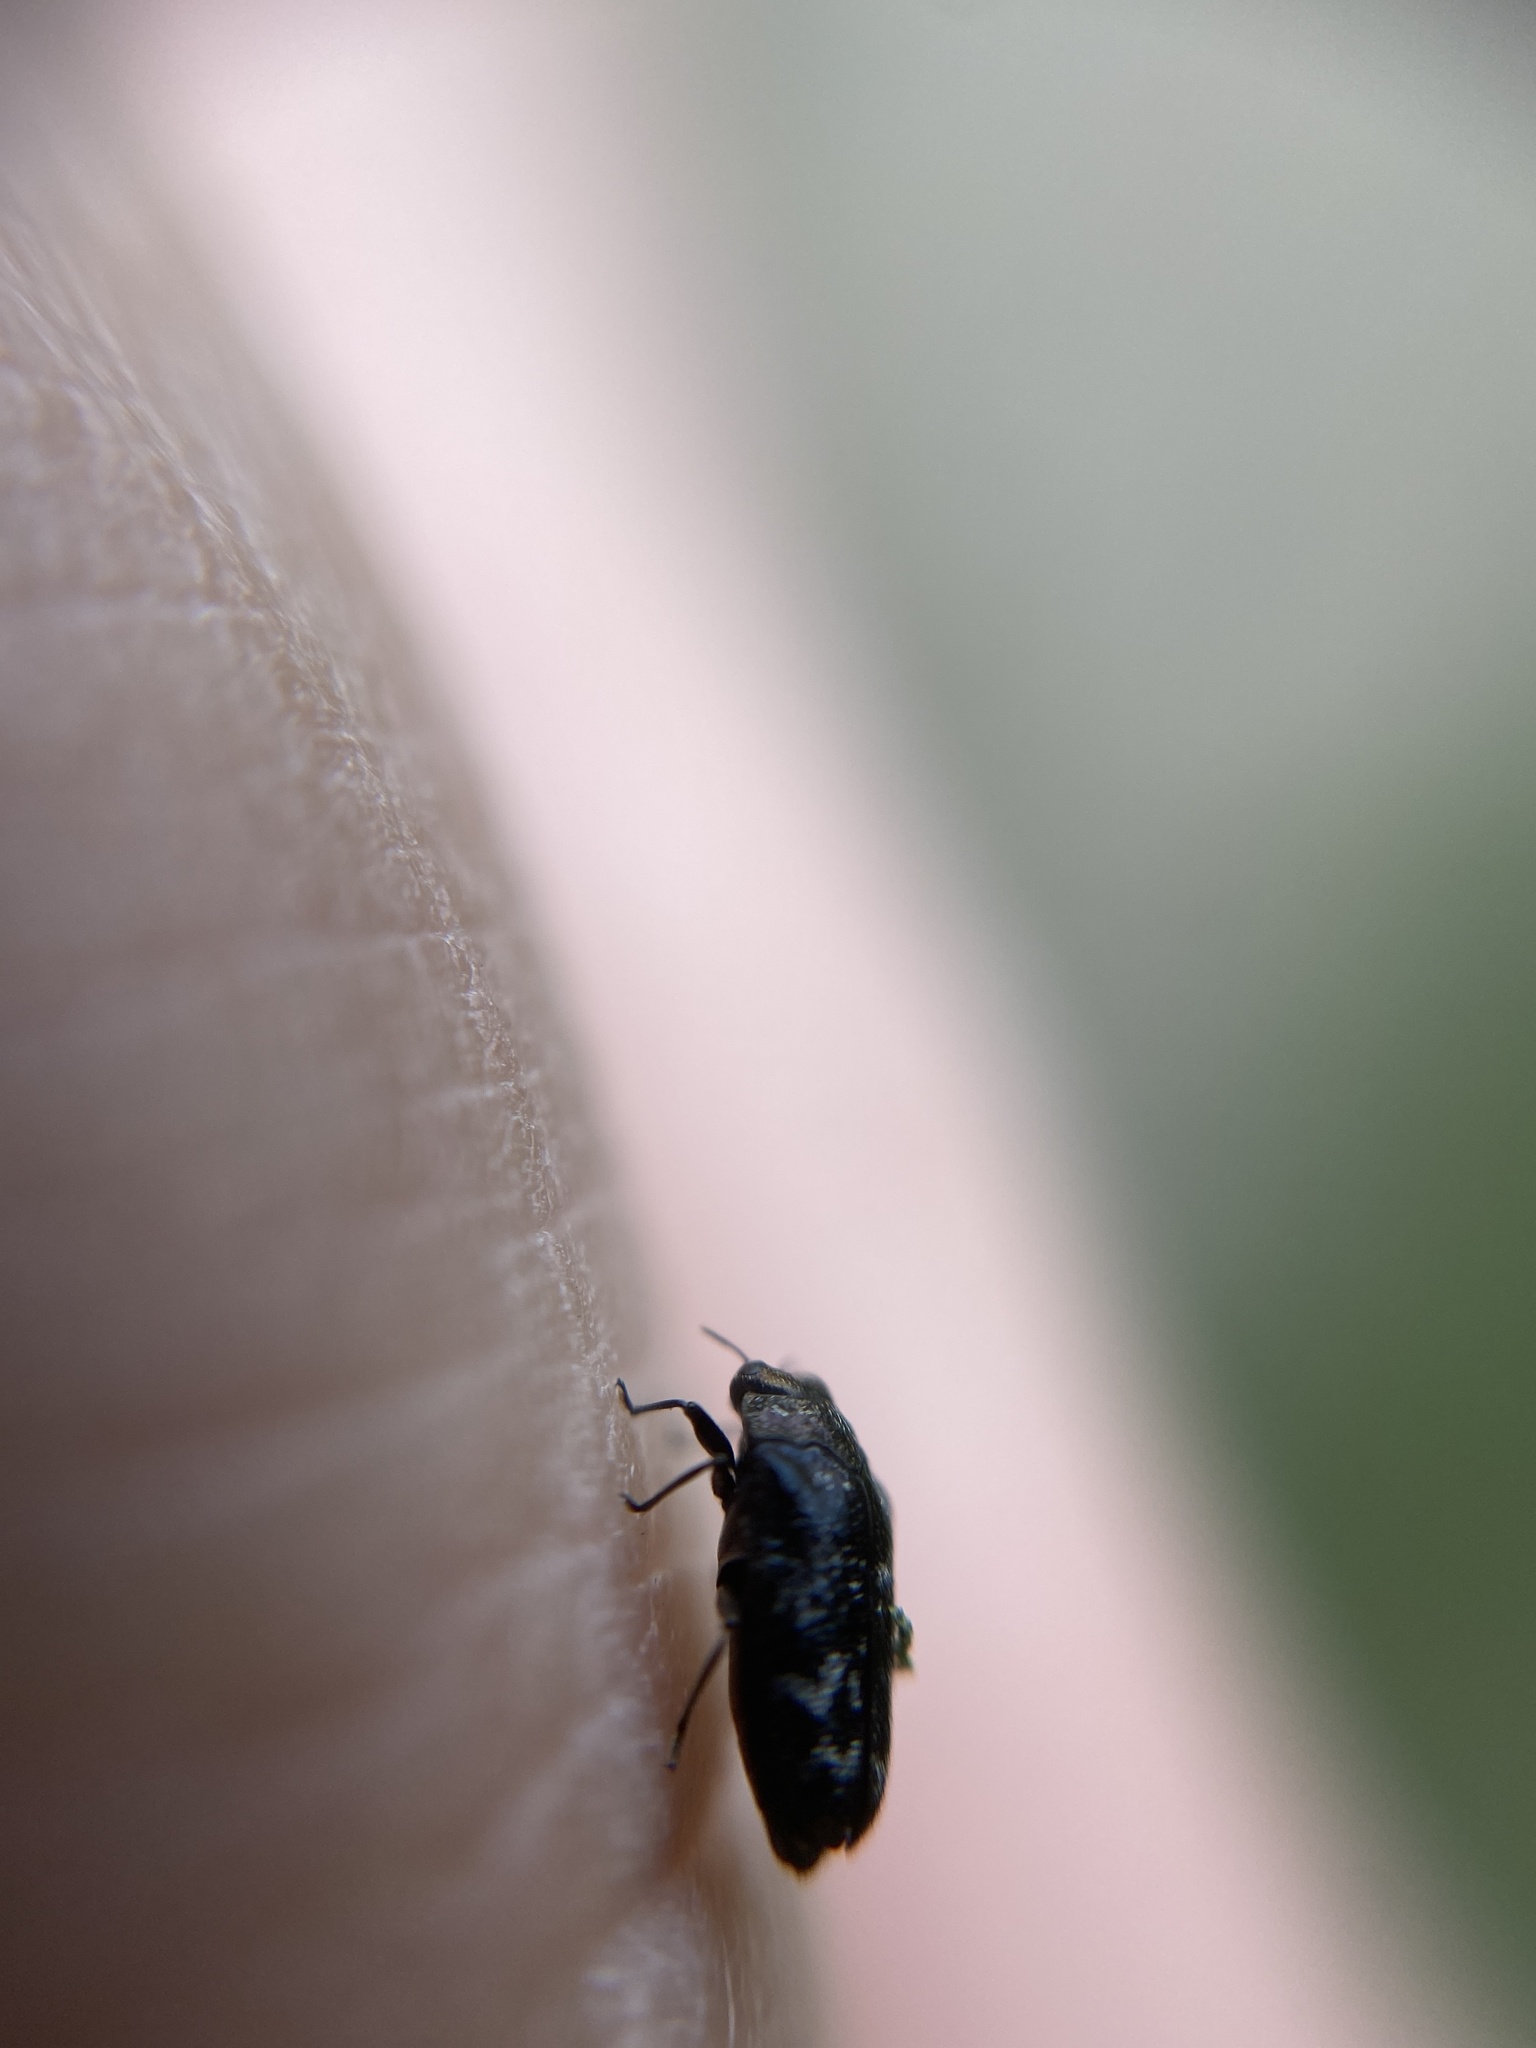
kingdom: Animalia
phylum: Arthropoda
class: Insecta
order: Coleoptera
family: Buprestidae
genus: Trachys
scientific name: Trachys minutus
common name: Metallic wood-boring beetle
